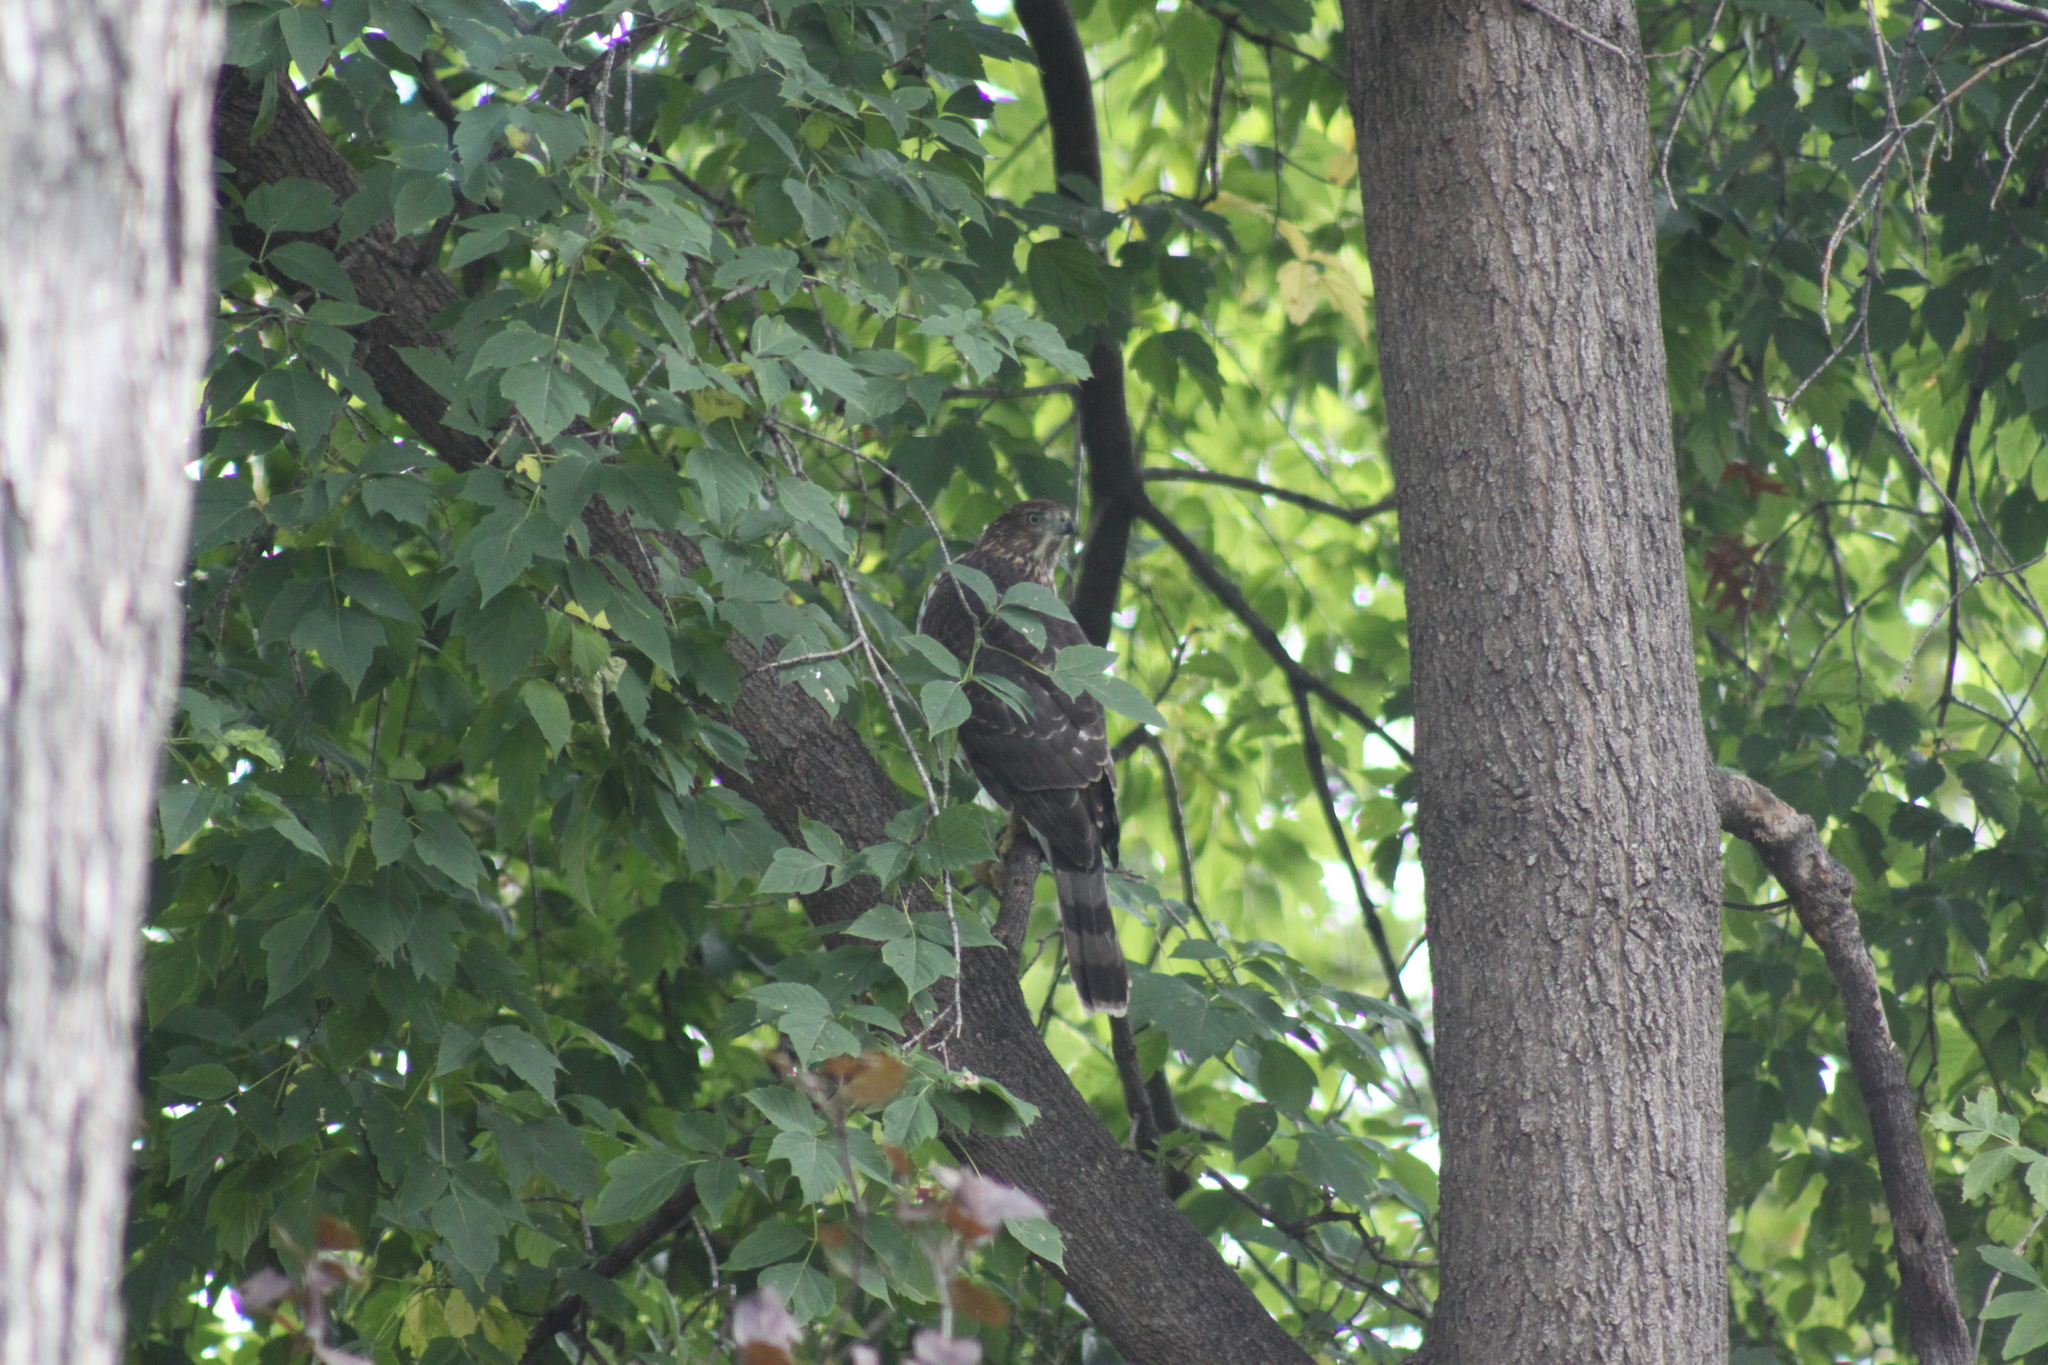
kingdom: Animalia
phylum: Chordata
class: Aves
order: Accipitriformes
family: Accipitridae
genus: Accipiter
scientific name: Accipiter cooperii
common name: Cooper's hawk
